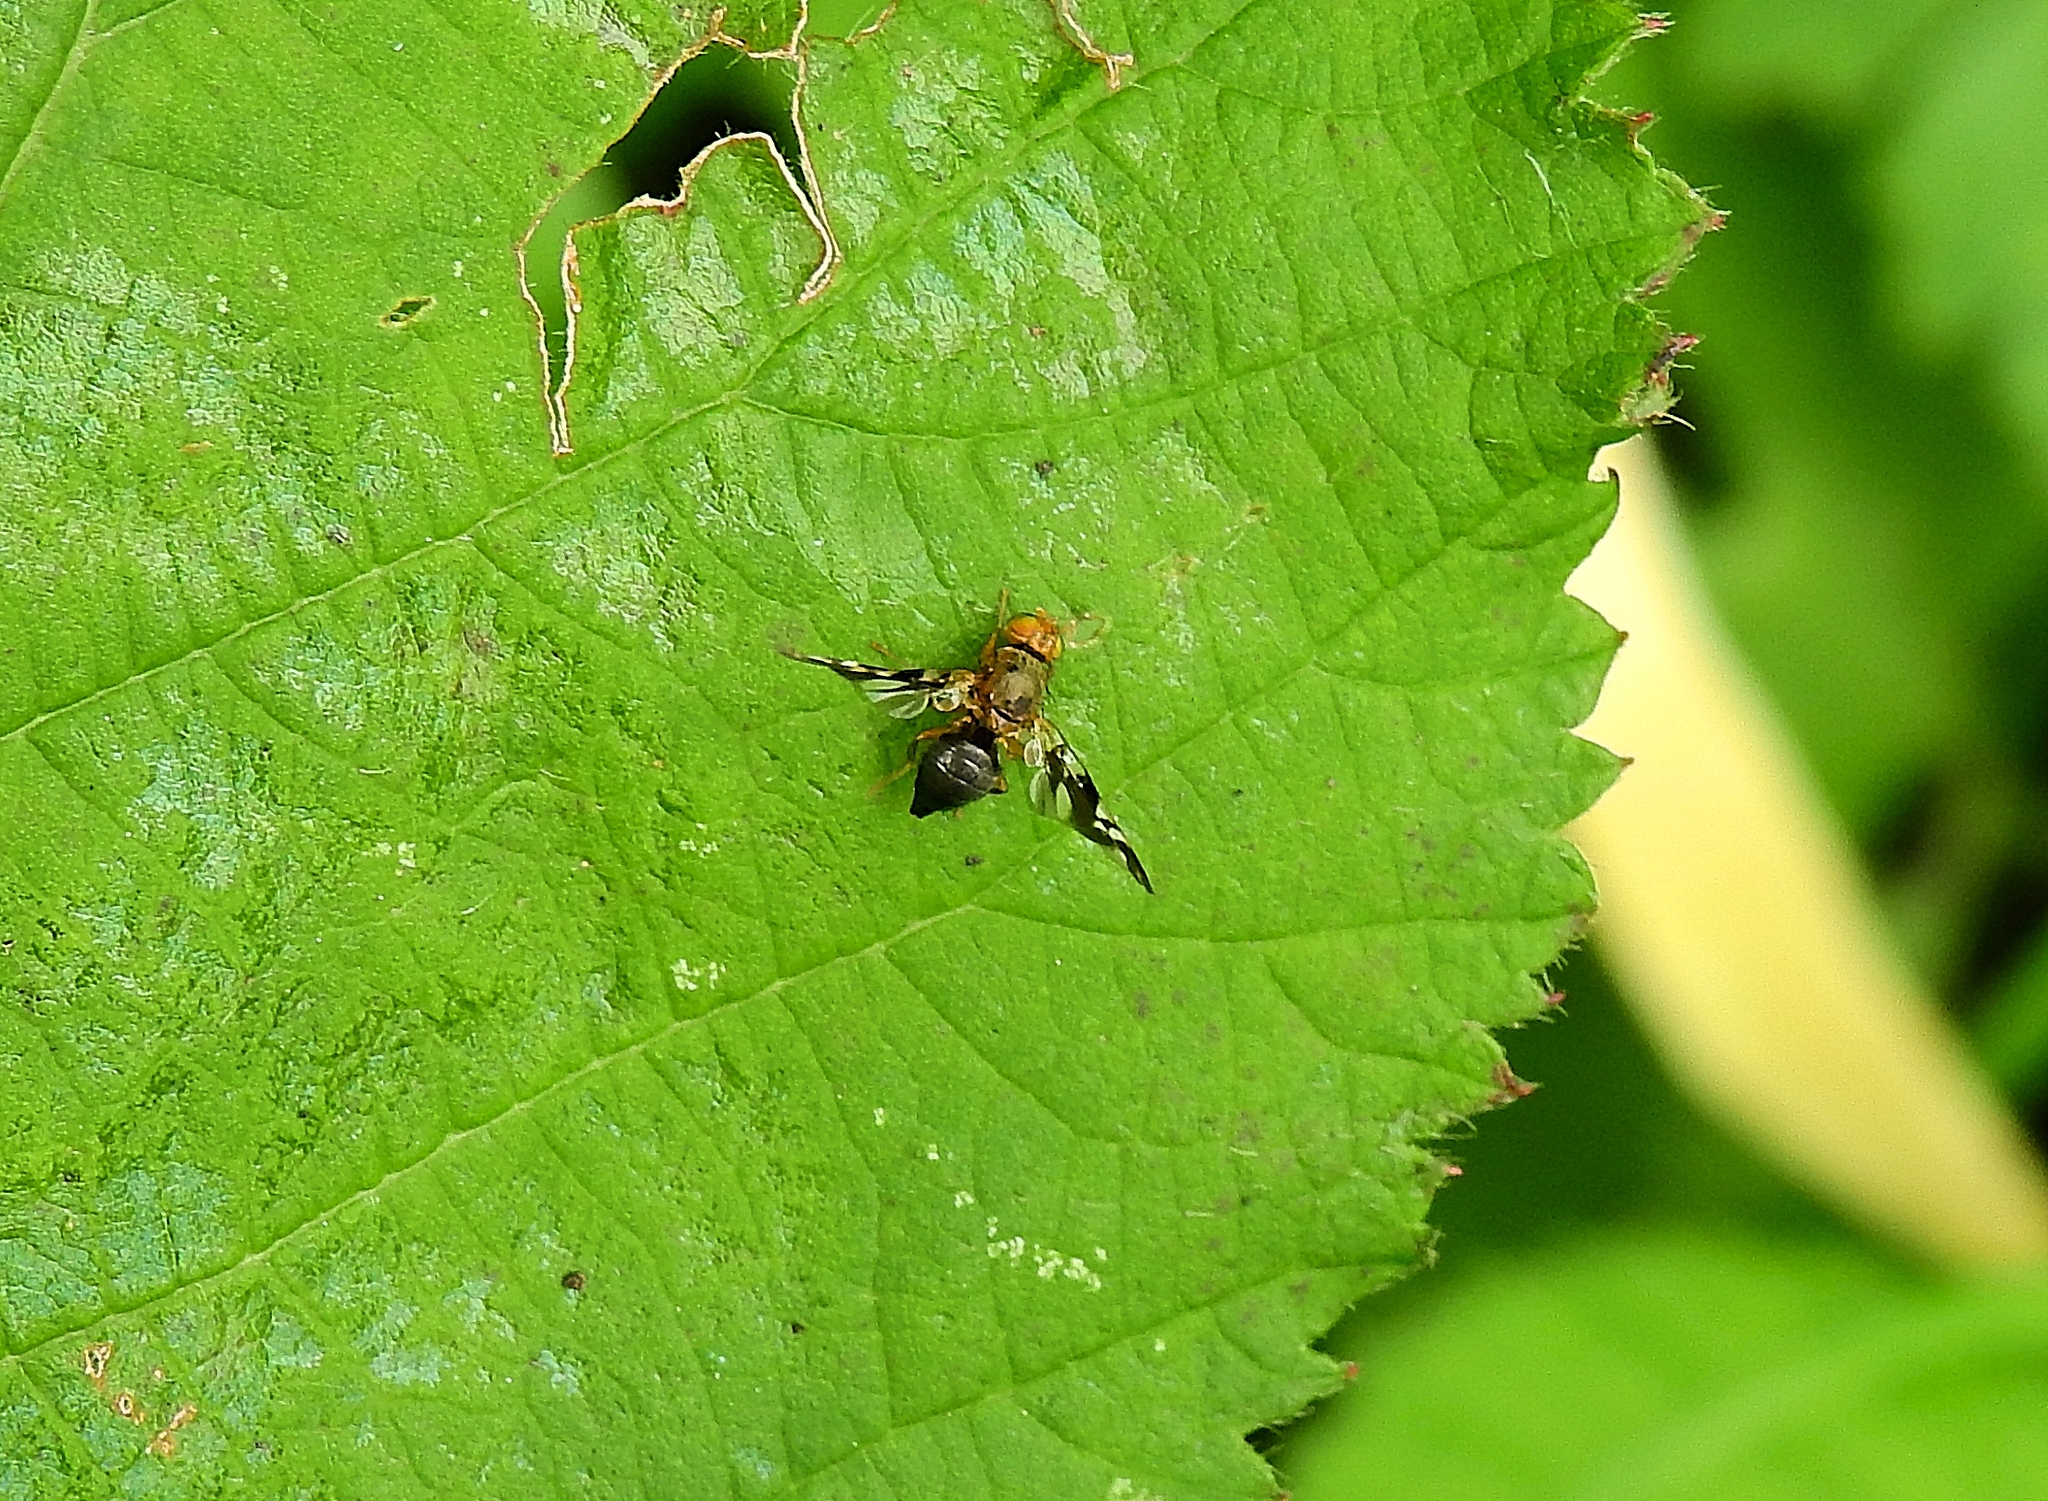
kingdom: Animalia
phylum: Arthropoda
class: Insecta
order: Diptera
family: Tephritidae
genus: Philophylla
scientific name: Philophylla caesio
